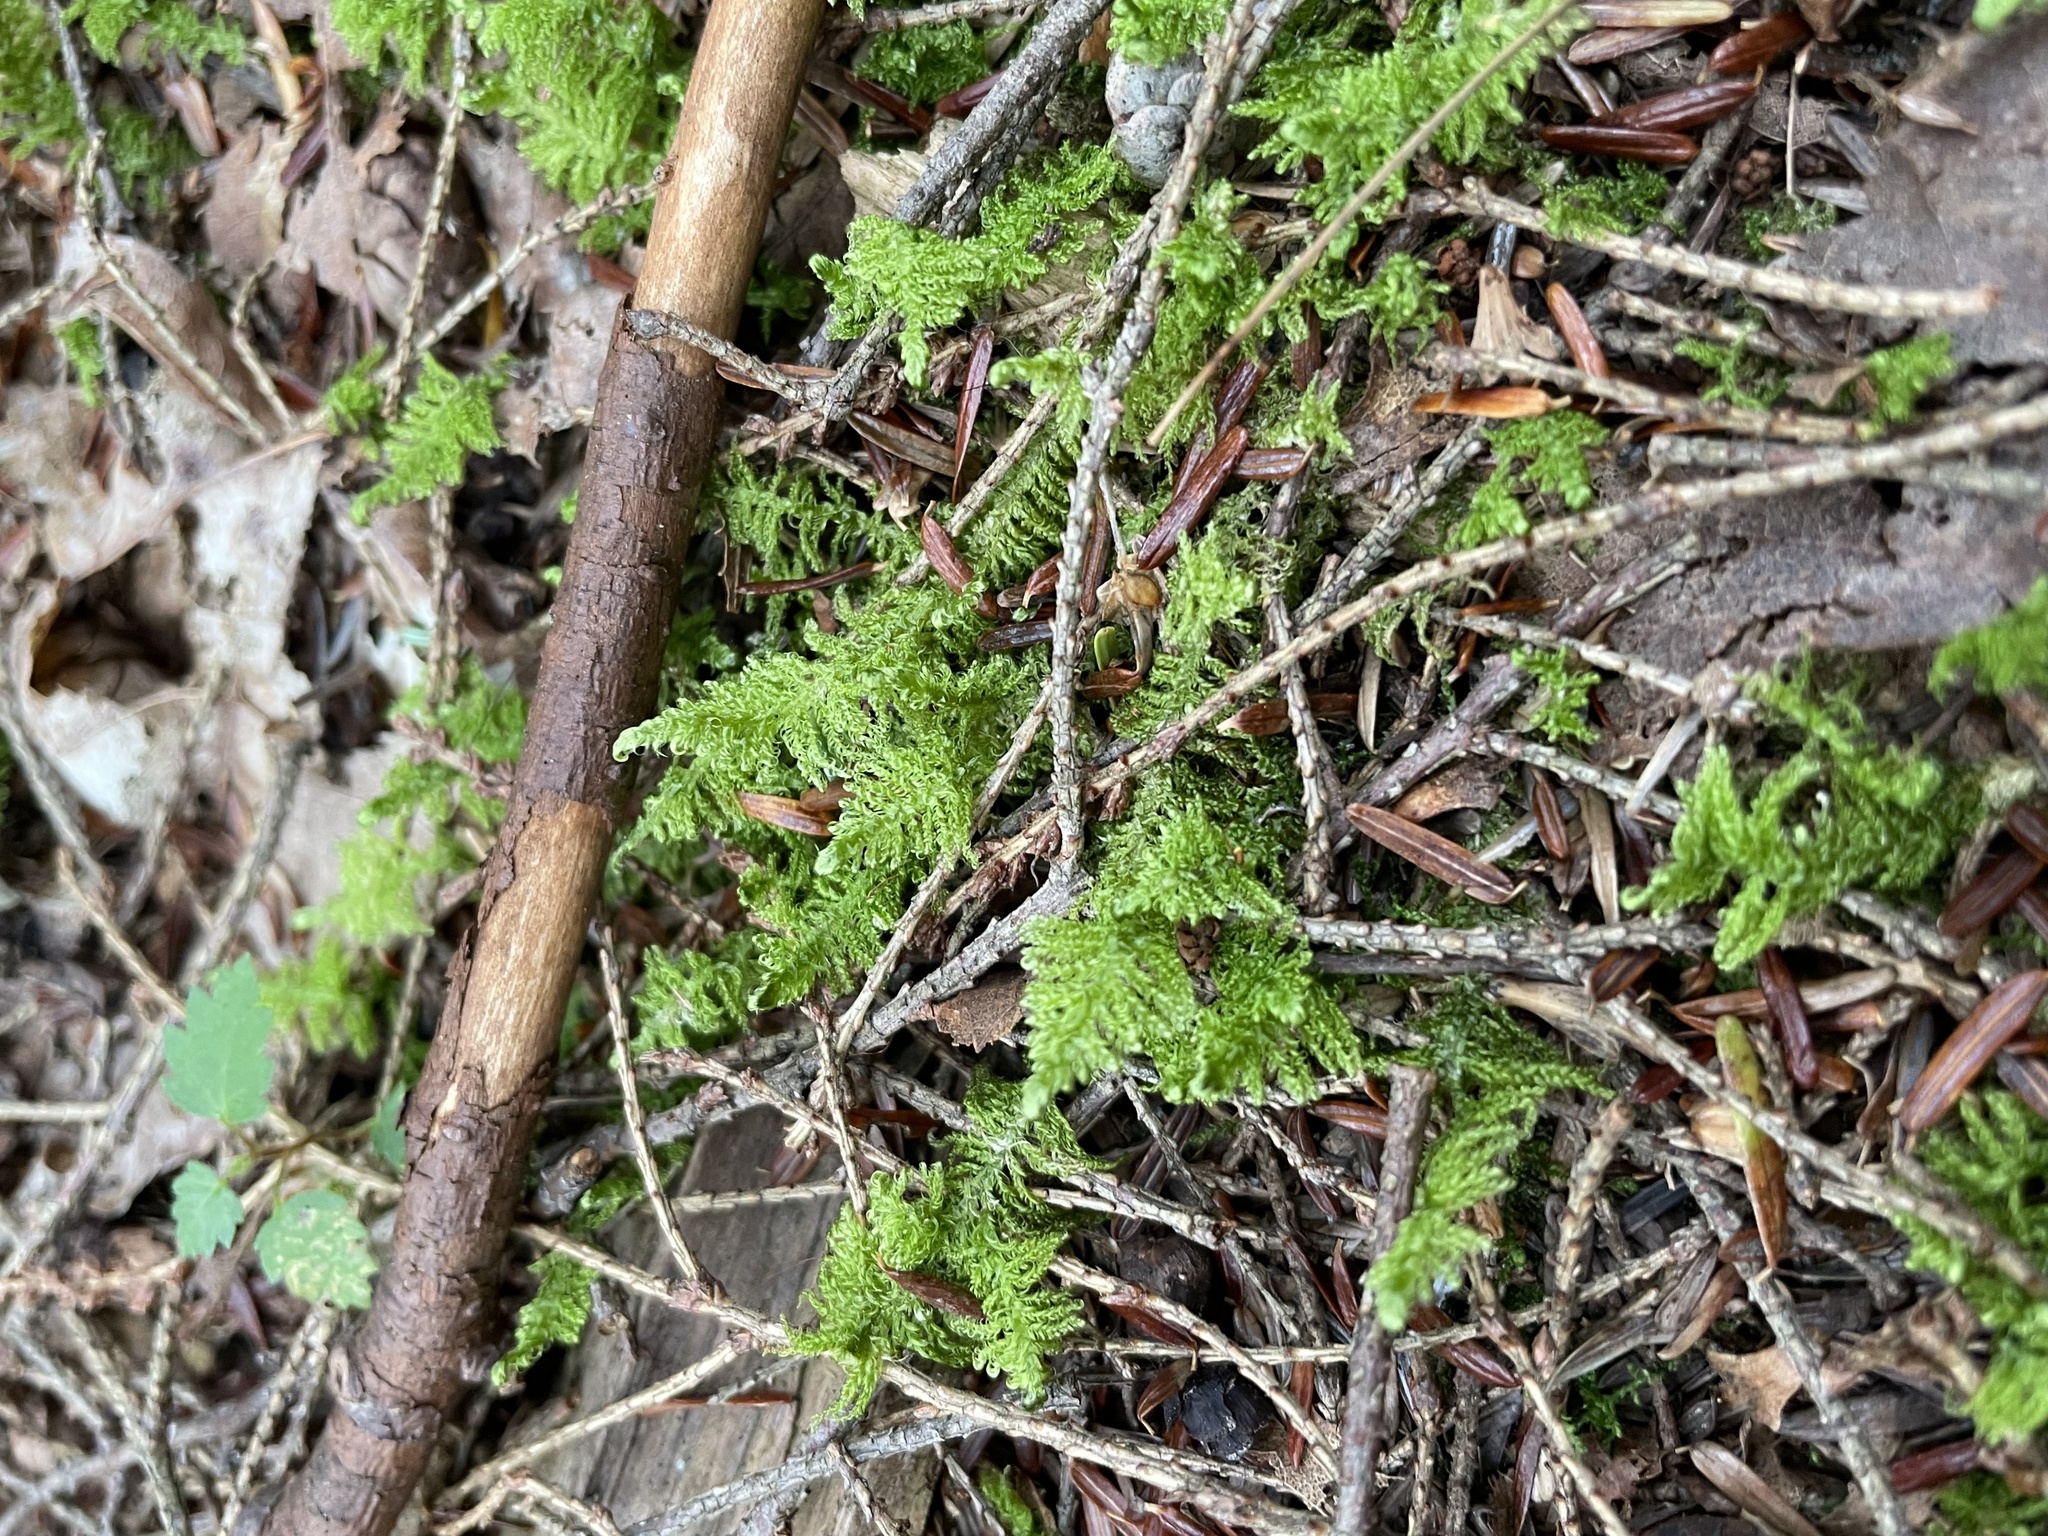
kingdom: Plantae
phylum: Bryophyta
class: Bryopsida
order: Hypnales
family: Pylaisiaceae
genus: Ptilium
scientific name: Ptilium crista-castrensis
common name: Knight's plume moss
